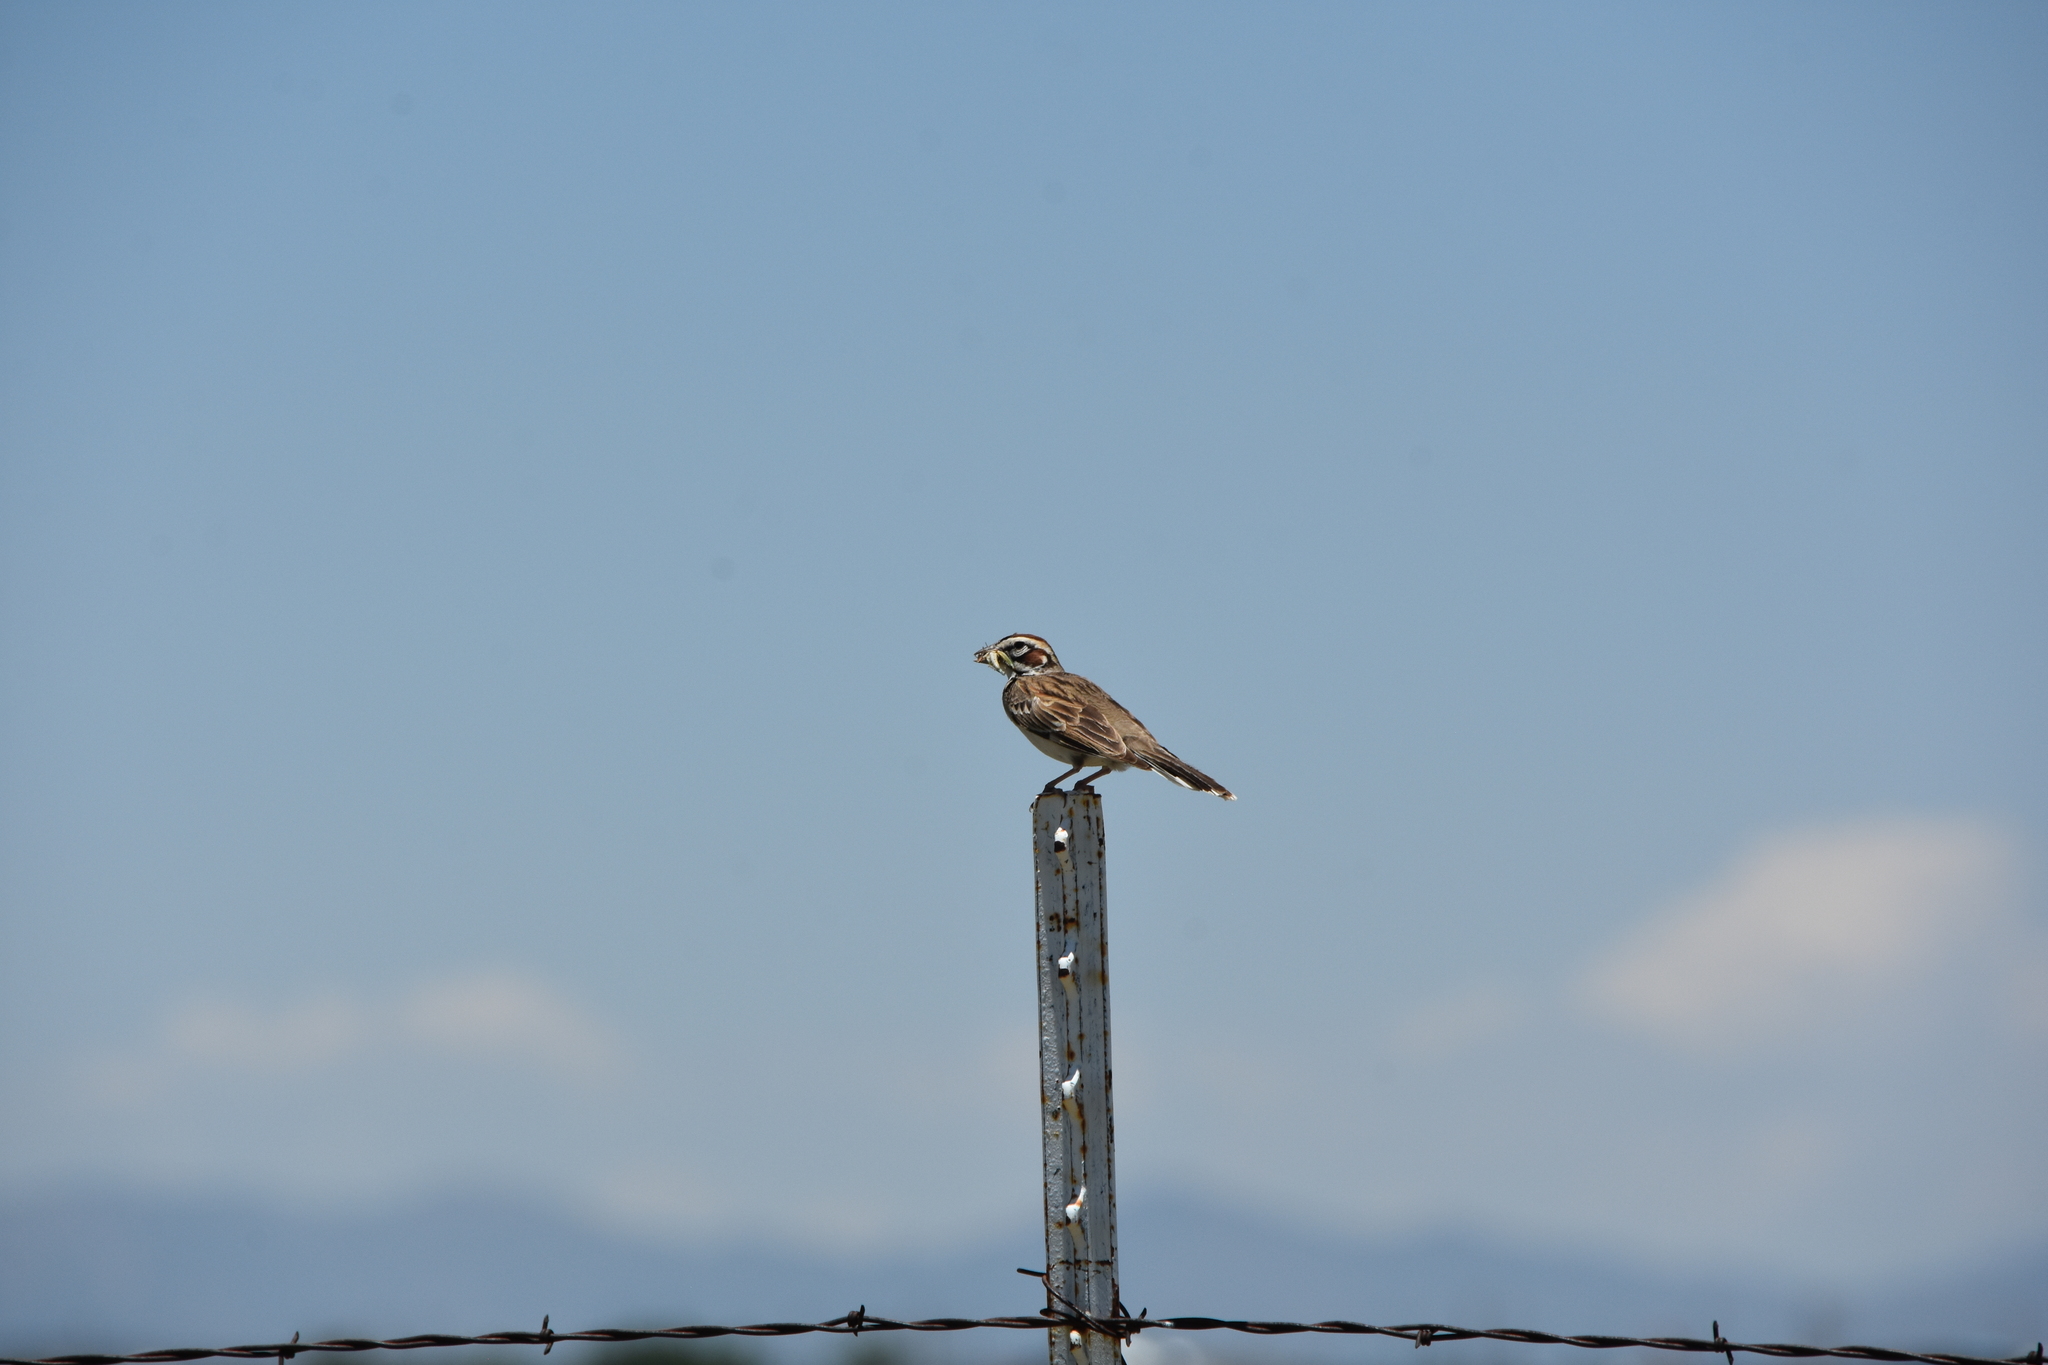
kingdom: Animalia
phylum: Chordata
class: Aves
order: Passeriformes
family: Passerellidae
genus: Chondestes
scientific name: Chondestes grammacus
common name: Lark sparrow
